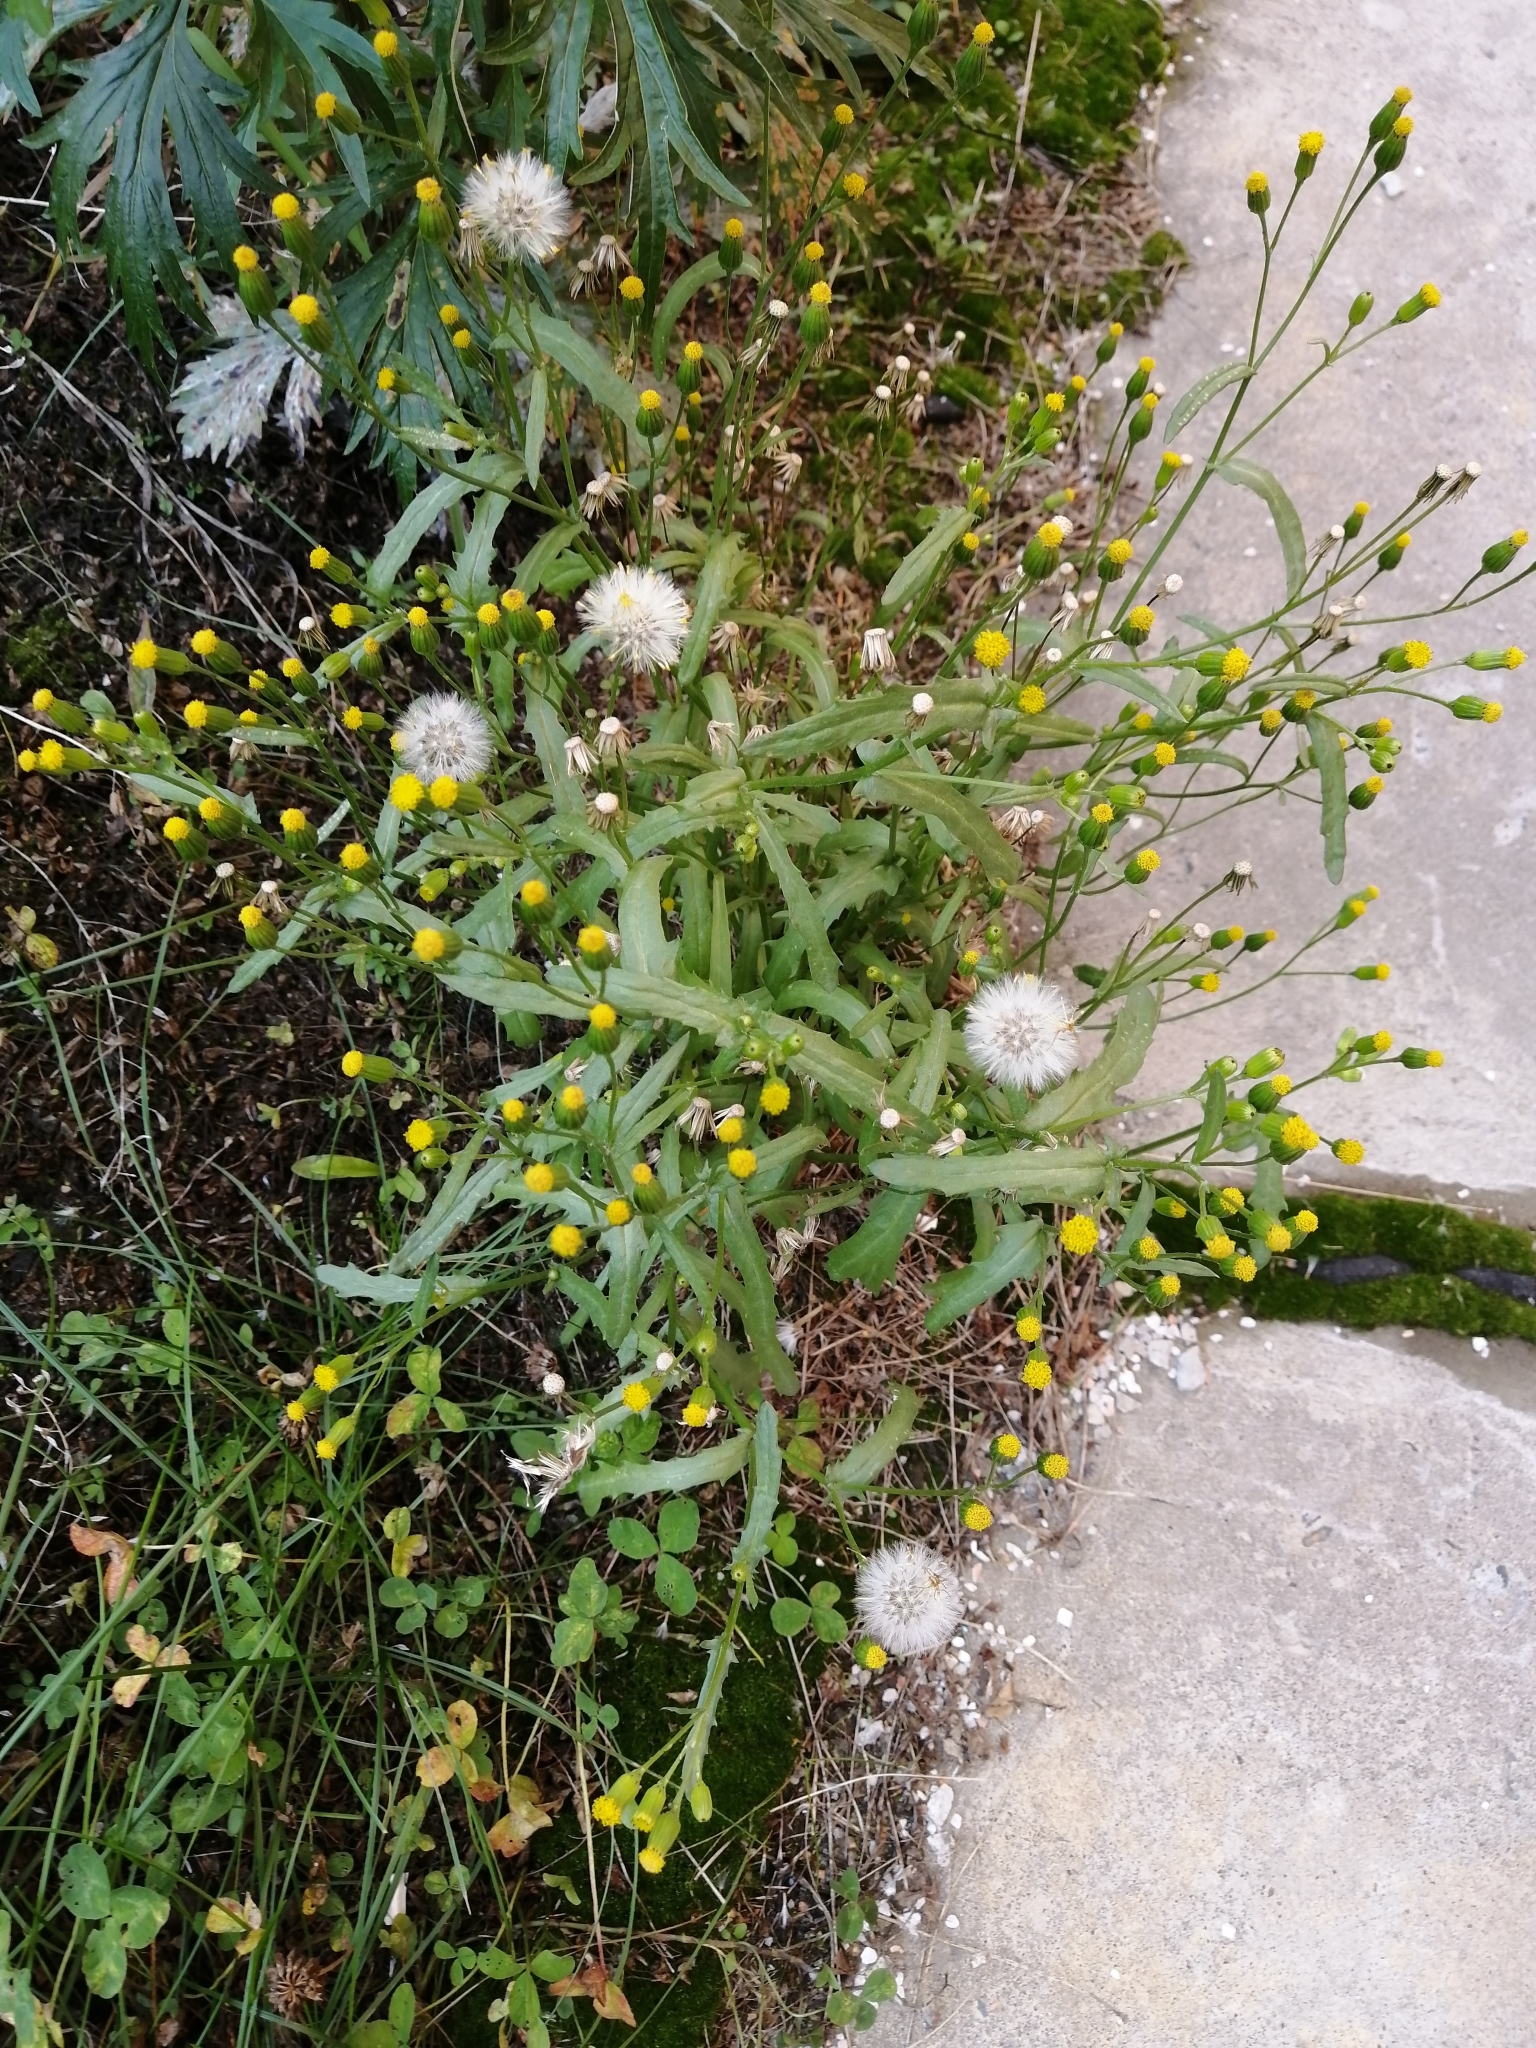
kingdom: Plantae
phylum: Tracheophyta
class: Magnoliopsida
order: Asterales
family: Asteraceae
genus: Senecio
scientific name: Senecio dubitabilis
